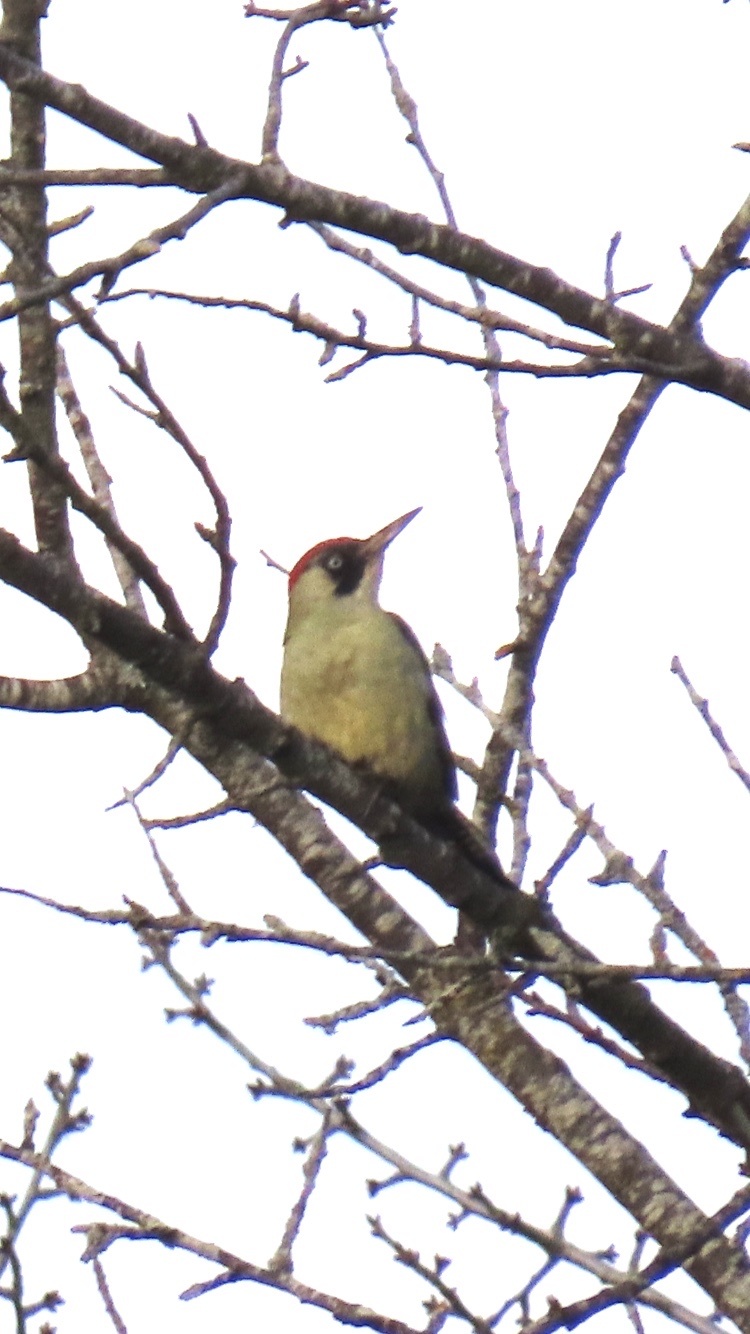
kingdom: Animalia
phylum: Chordata
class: Aves
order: Piciformes
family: Picidae
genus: Picus
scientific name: Picus viridis
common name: European green woodpecker
